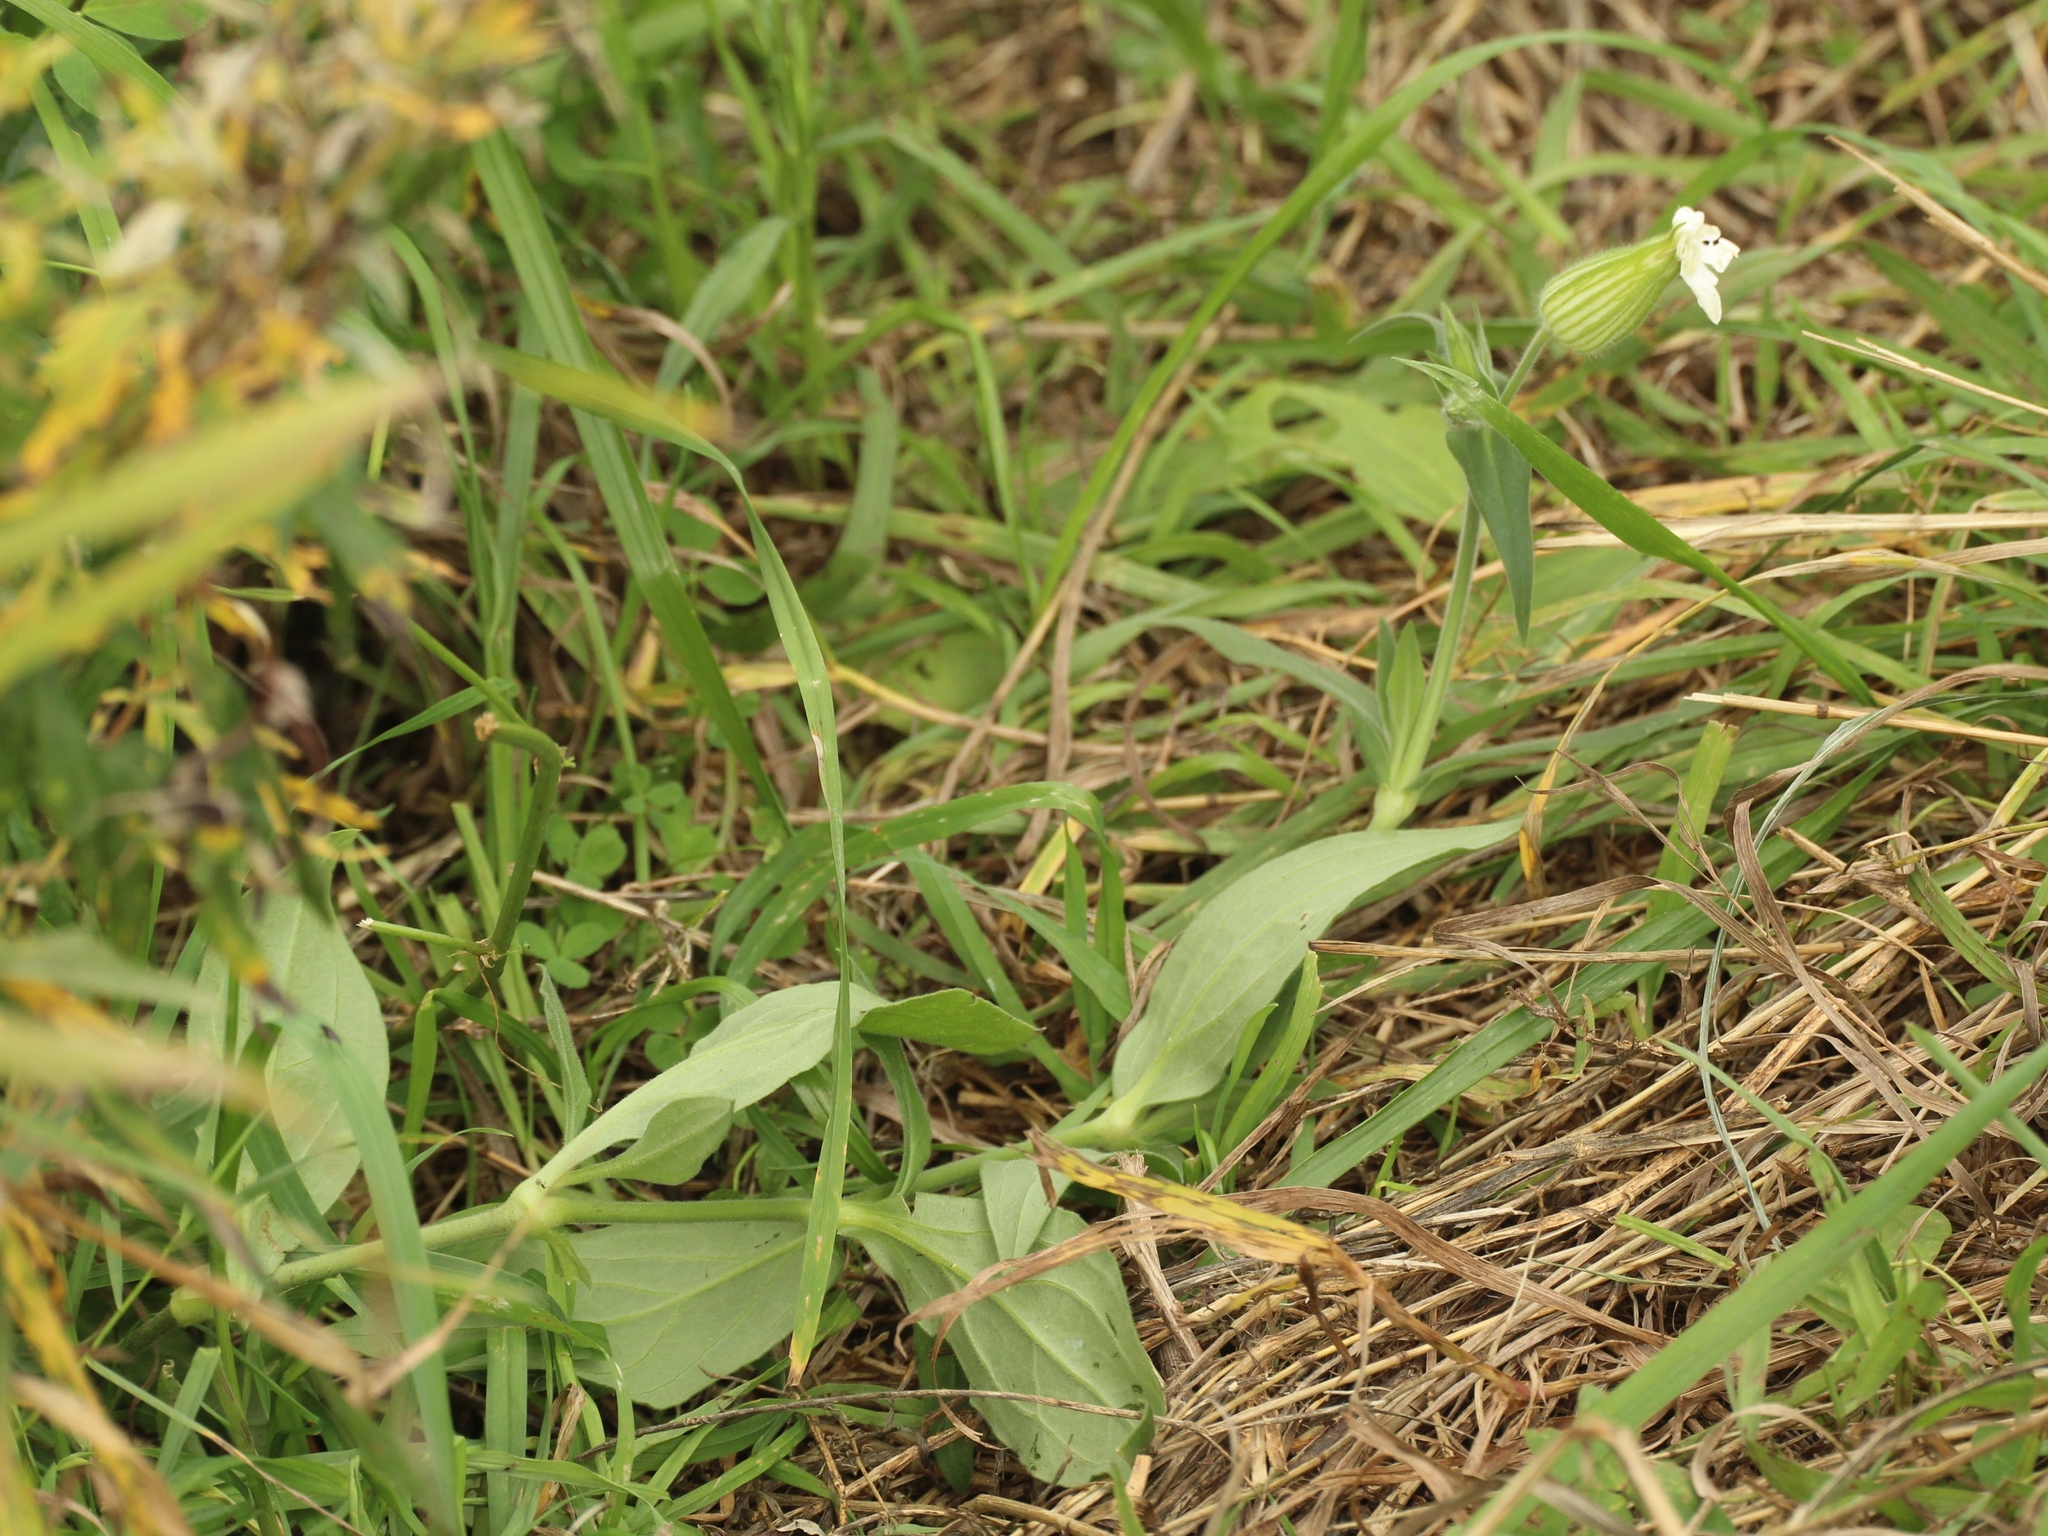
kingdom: Plantae
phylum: Tracheophyta
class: Magnoliopsida
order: Caryophyllales
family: Caryophyllaceae
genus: Silene
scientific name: Silene latifolia
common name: White campion
